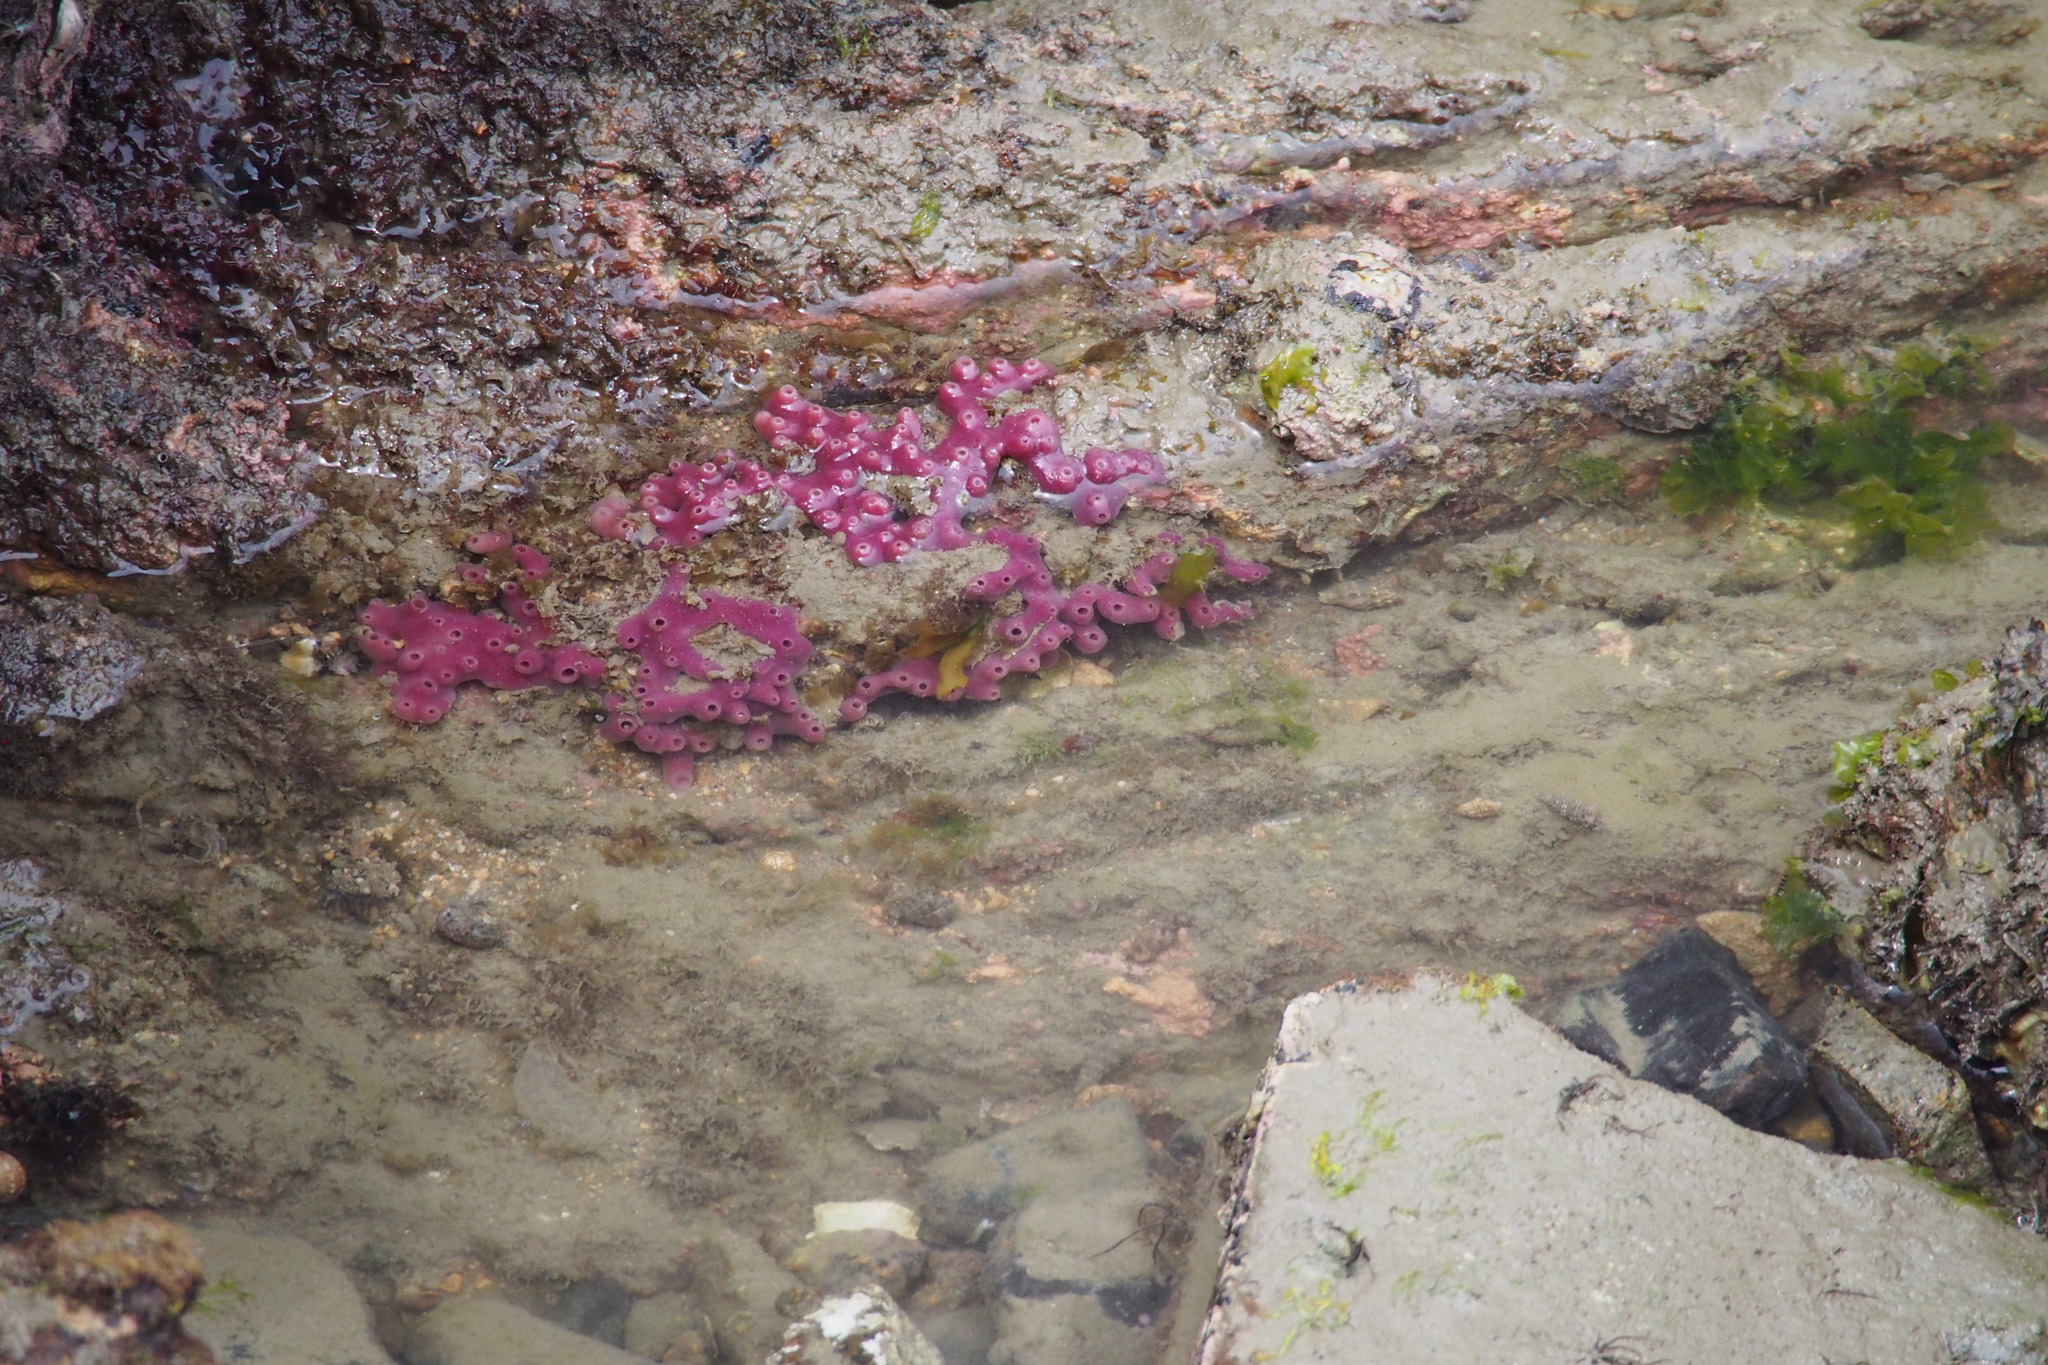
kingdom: Animalia
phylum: Porifera
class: Demospongiae
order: Haplosclerida
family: Chalinidae
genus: Haliclona
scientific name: Haliclona cinerea
